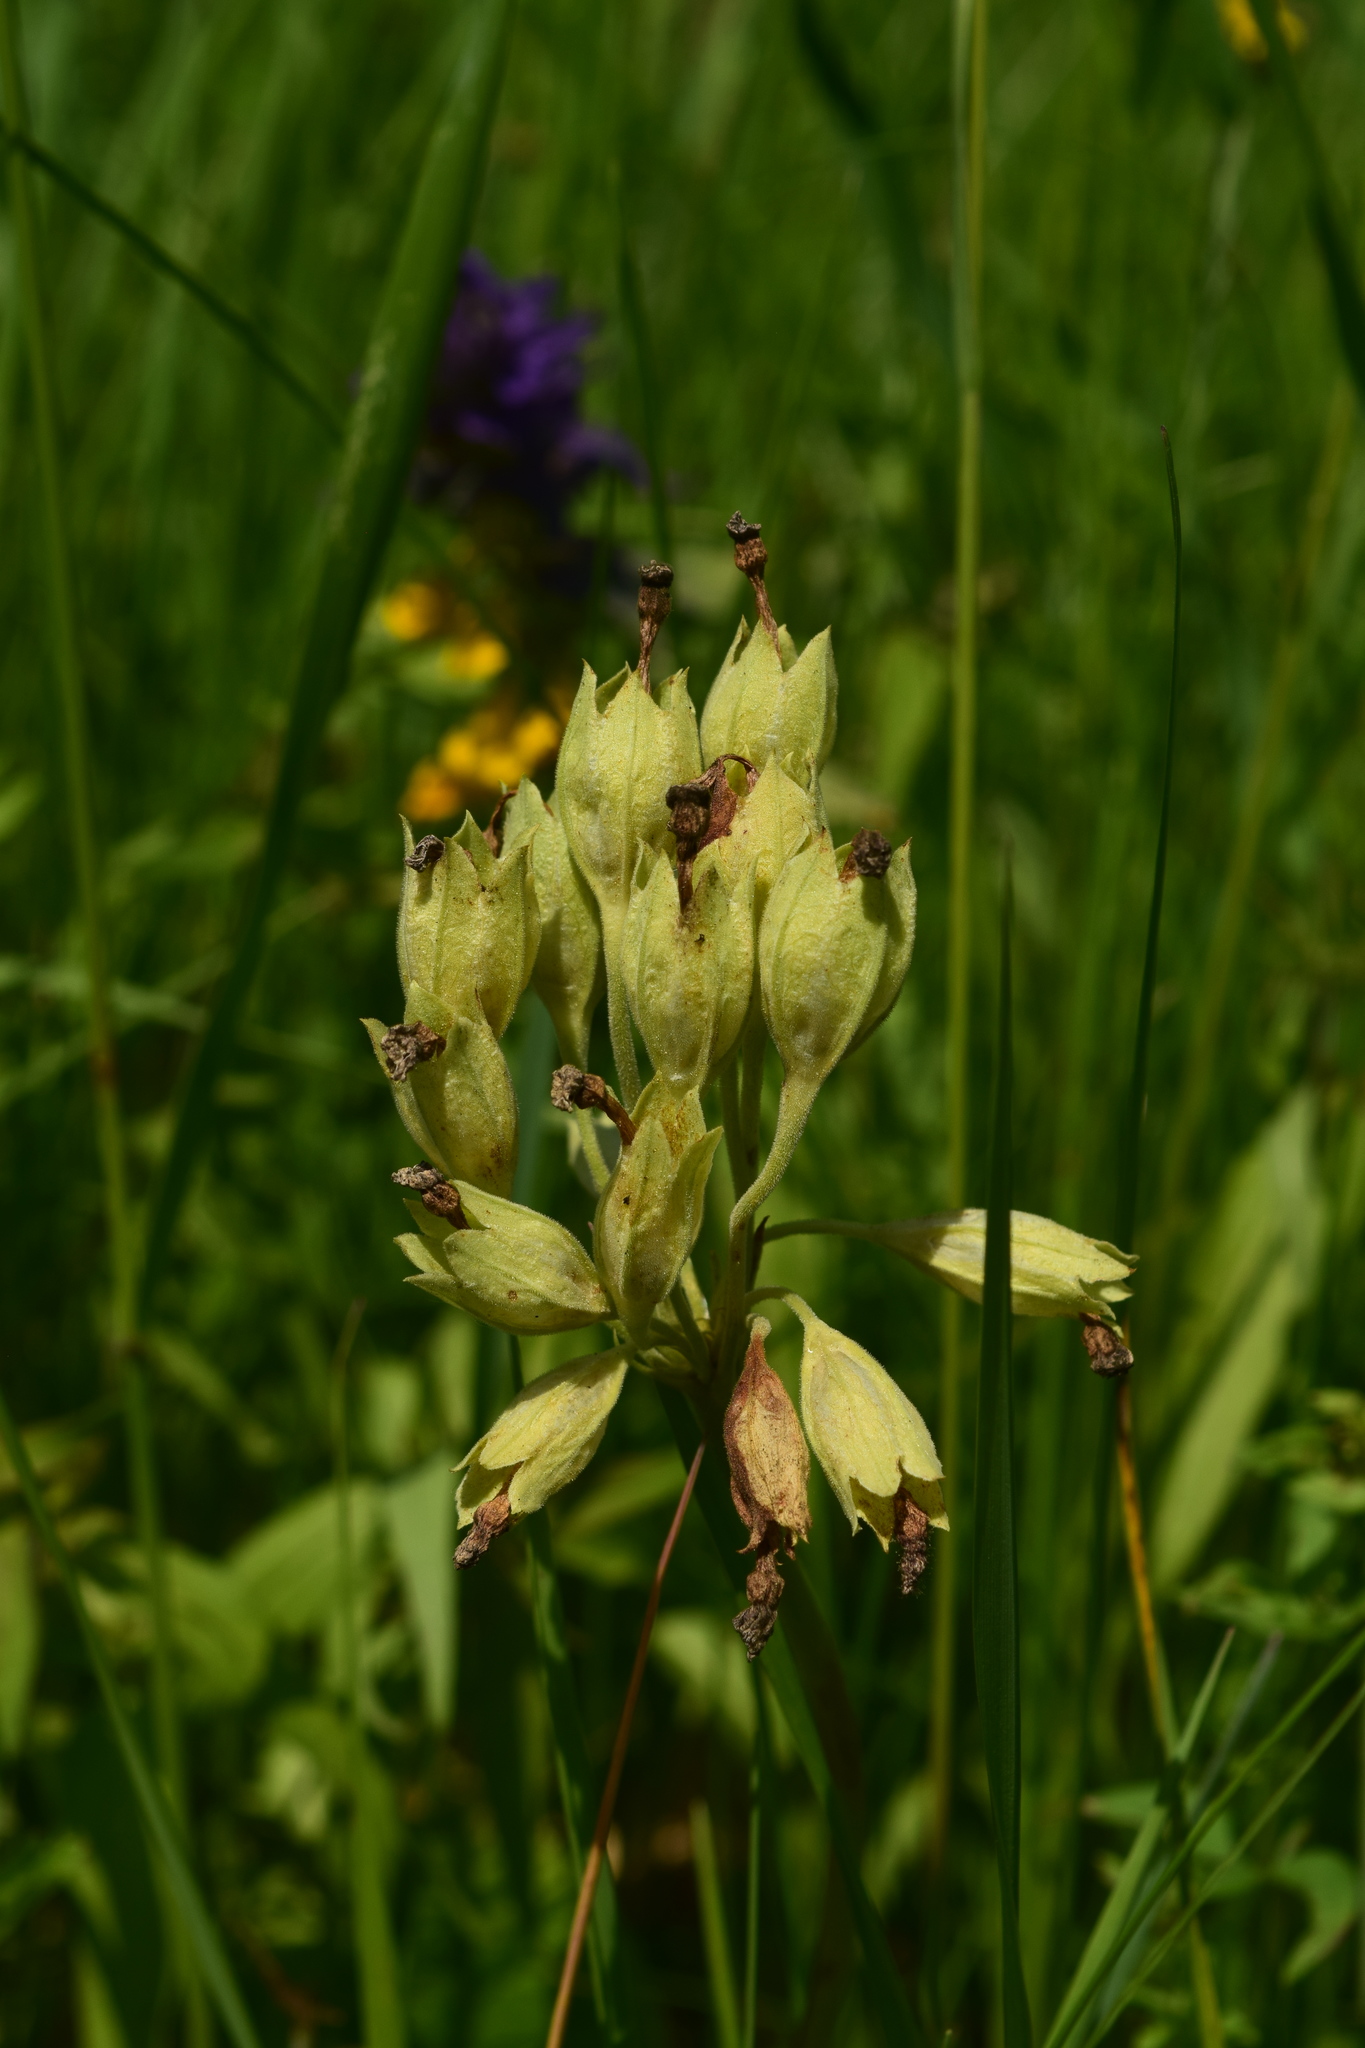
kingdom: Plantae
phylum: Tracheophyta
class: Magnoliopsida
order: Ericales
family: Primulaceae
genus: Primula
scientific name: Primula veris
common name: Cowslip
